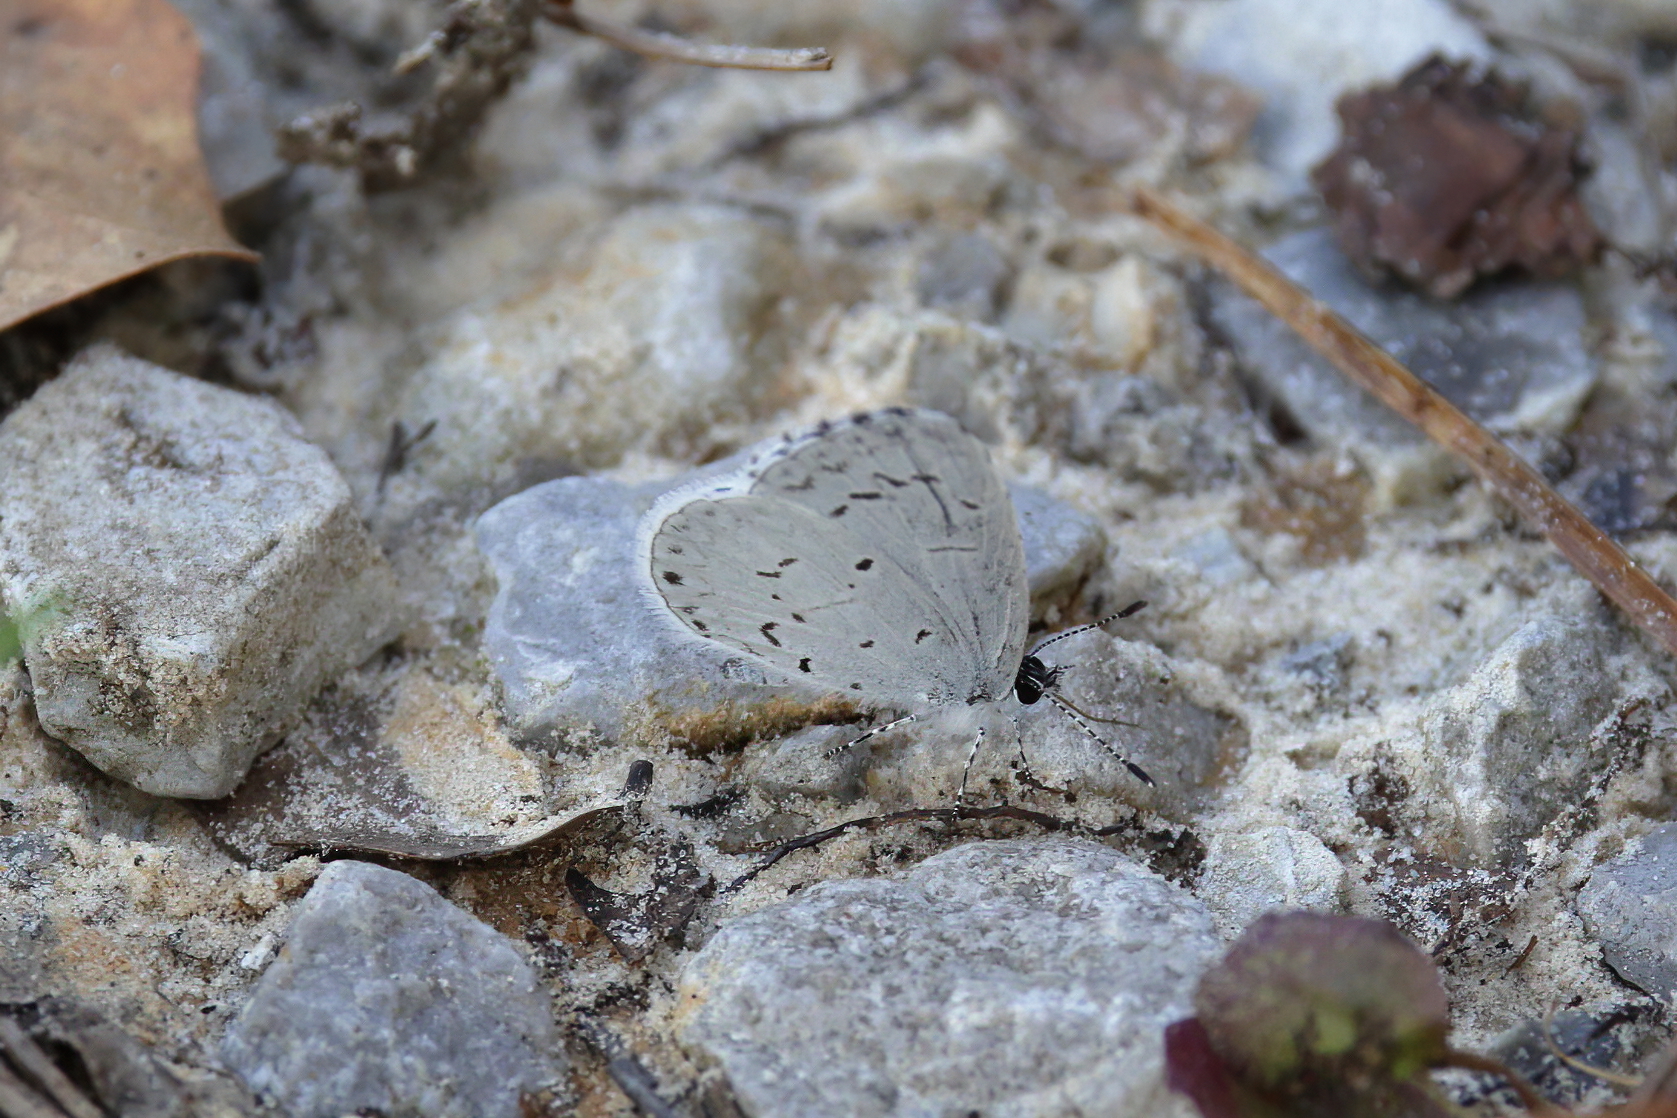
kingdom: Animalia
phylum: Arthropoda
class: Insecta
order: Lepidoptera
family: Lycaenidae
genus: Cyaniris
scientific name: Cyaniris neglecta
